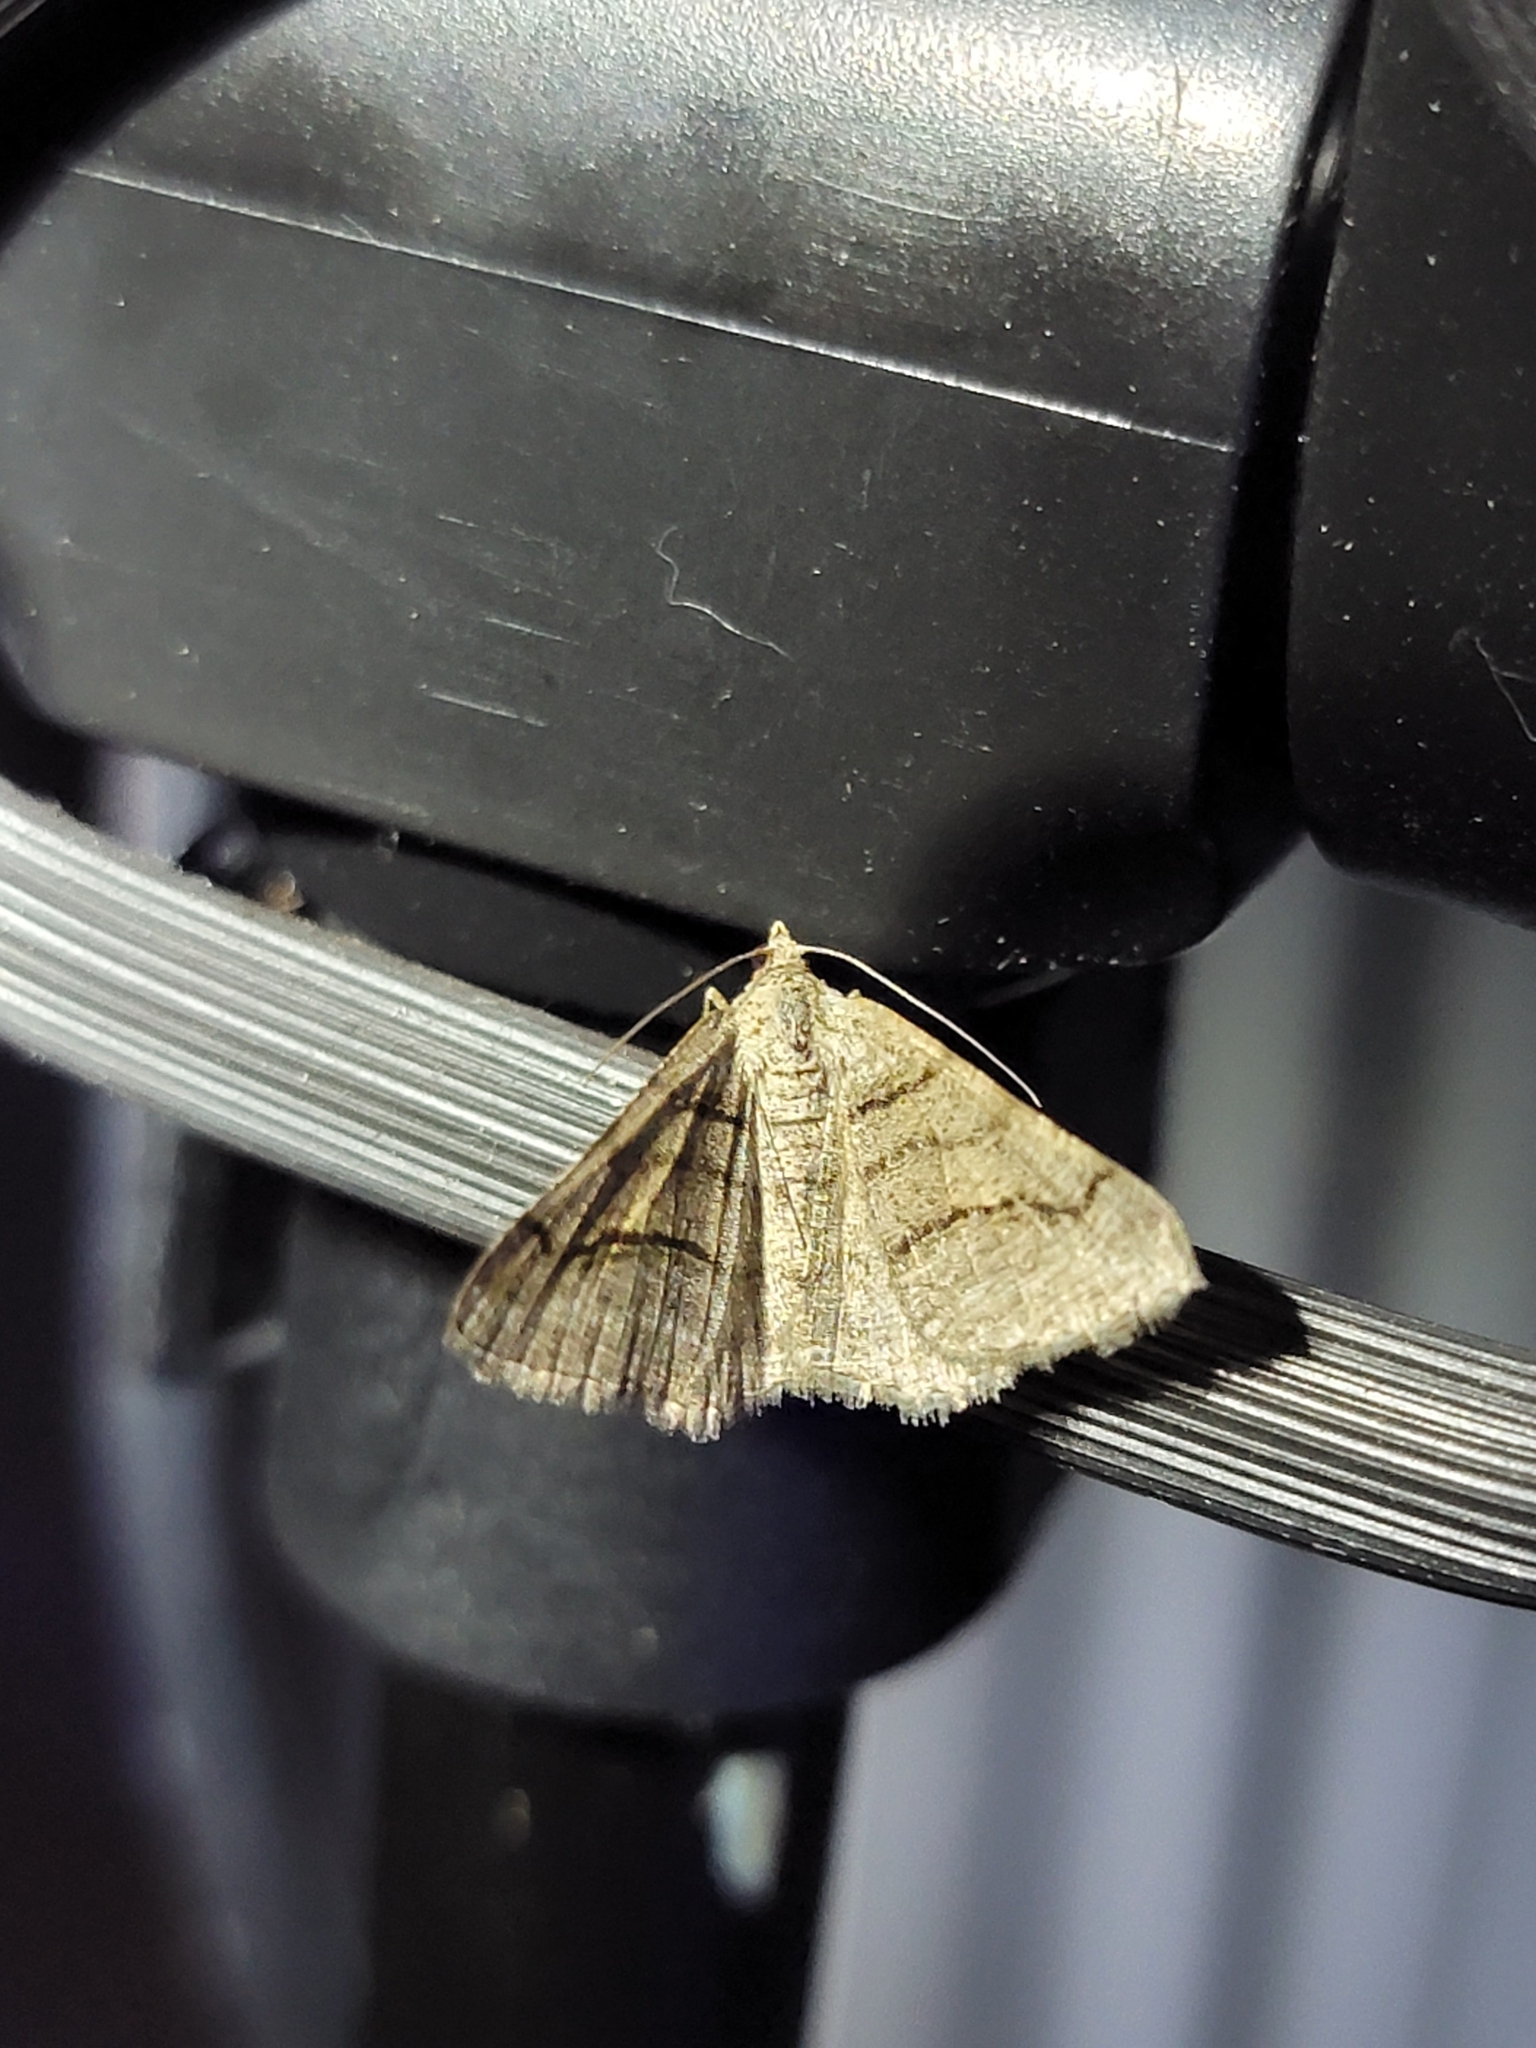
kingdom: Animalia
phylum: Arthropoda
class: Insecta
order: Lepidoptera
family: Geometridae
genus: Digrammia
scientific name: Digrammia continuata
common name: Curve-lined angle
